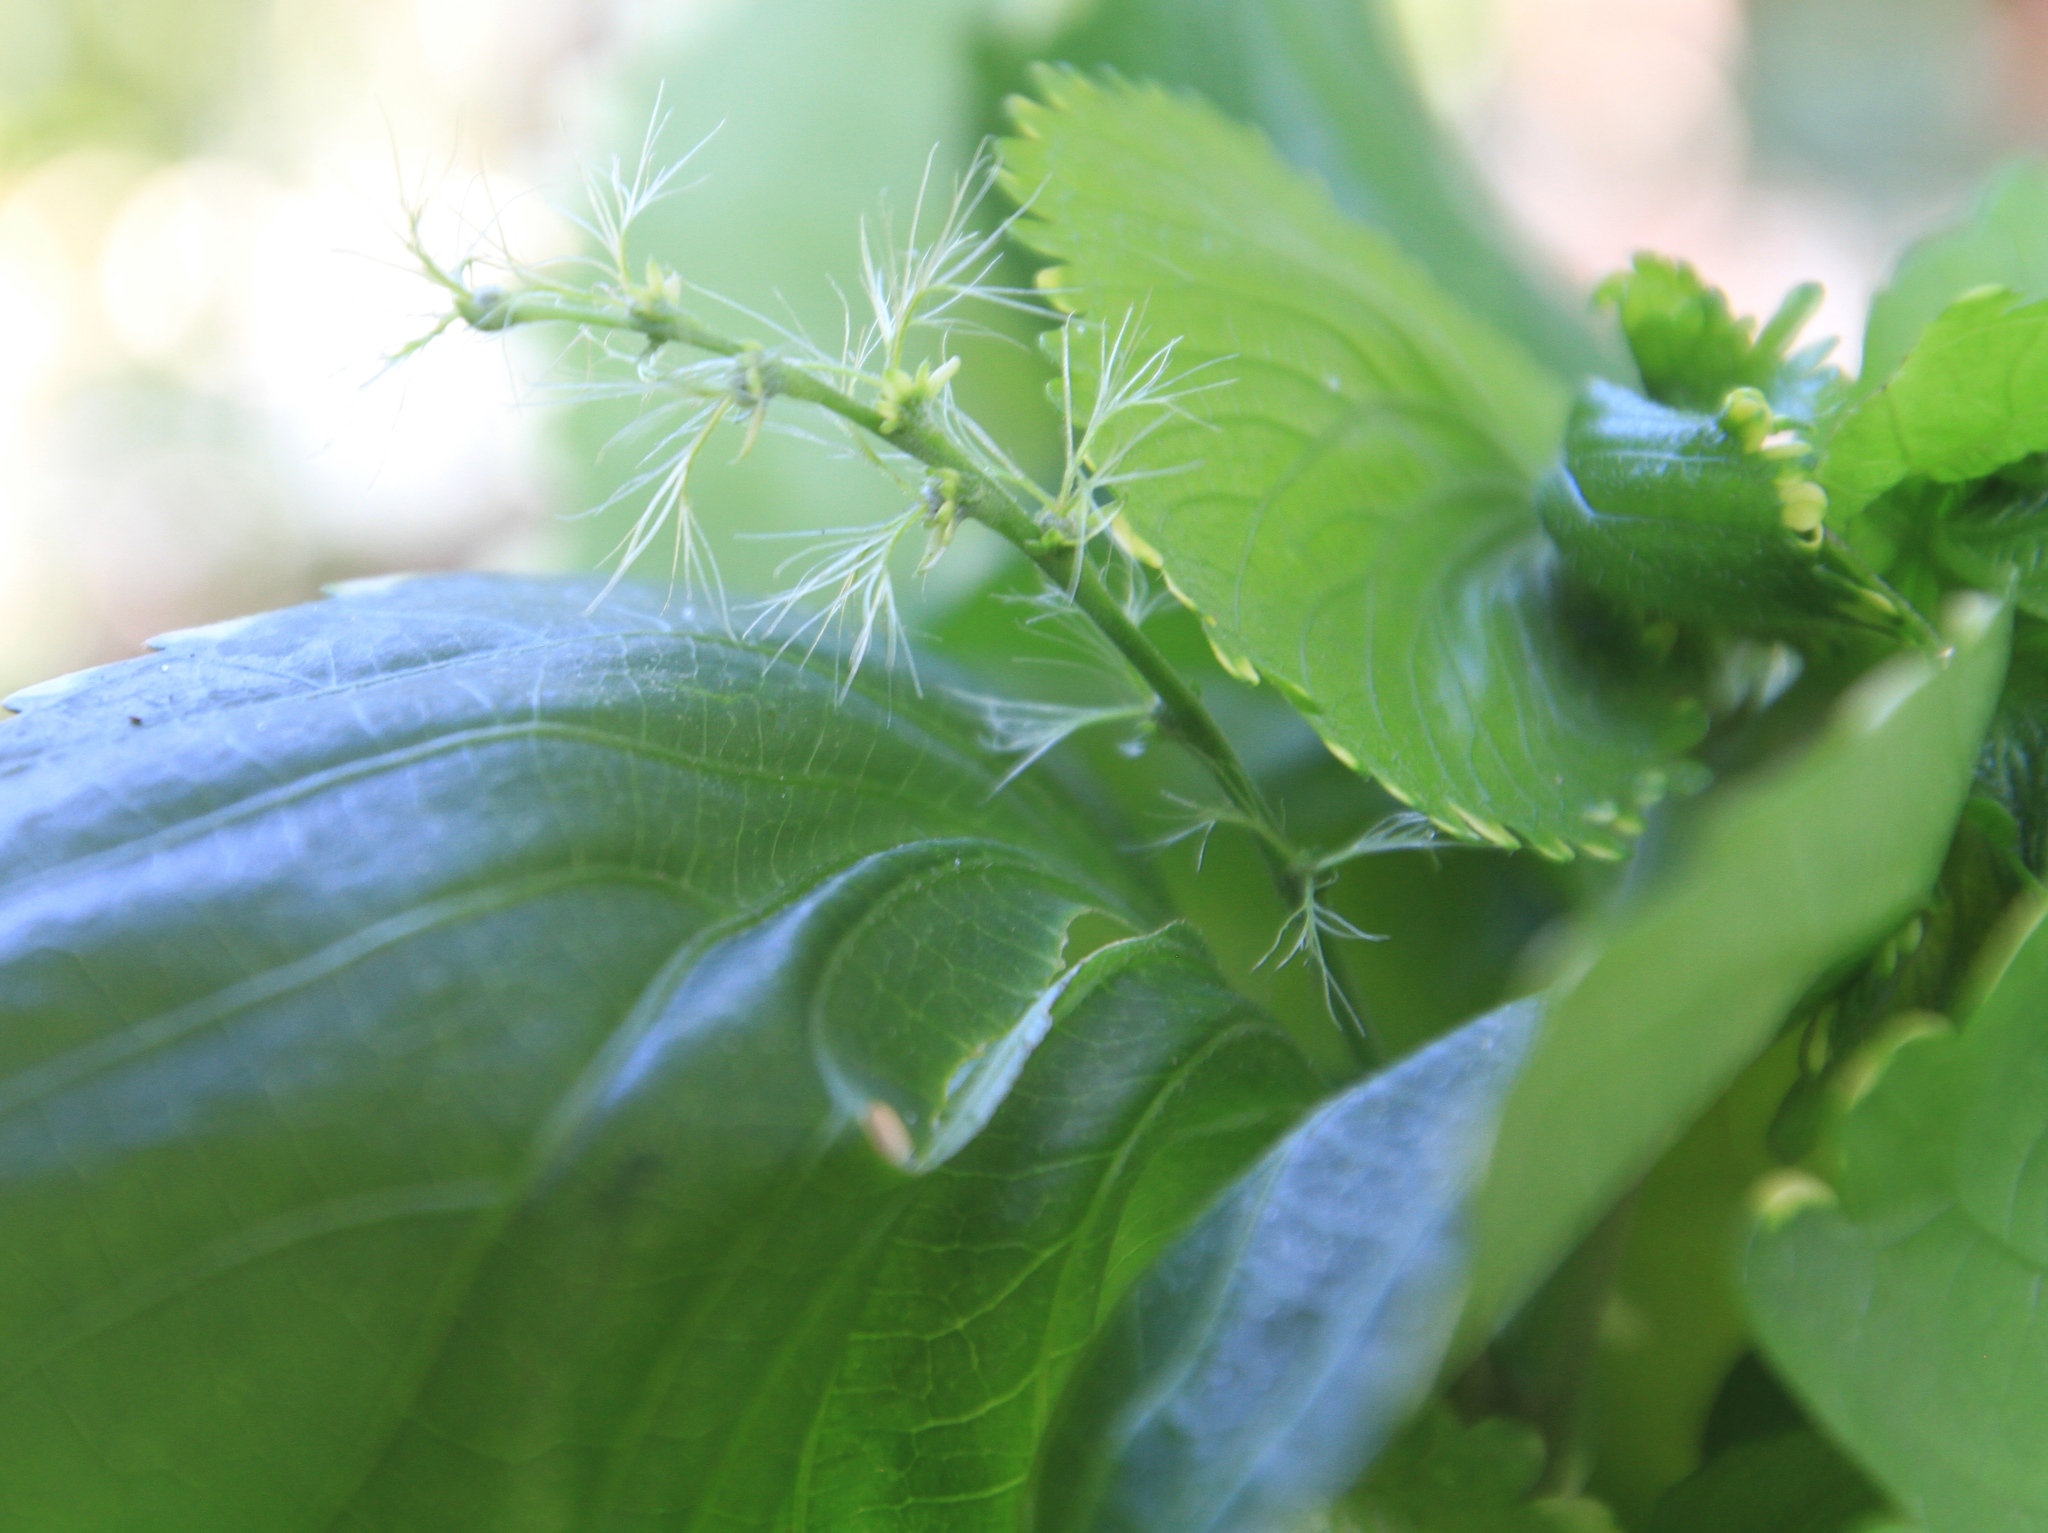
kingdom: Plantae
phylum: Tracheophyta
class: Magnoliopsida
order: Malpighiales
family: Euphorbiaceae
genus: Acalypha
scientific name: Acalypha wilkesiana
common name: Jacob's coat
